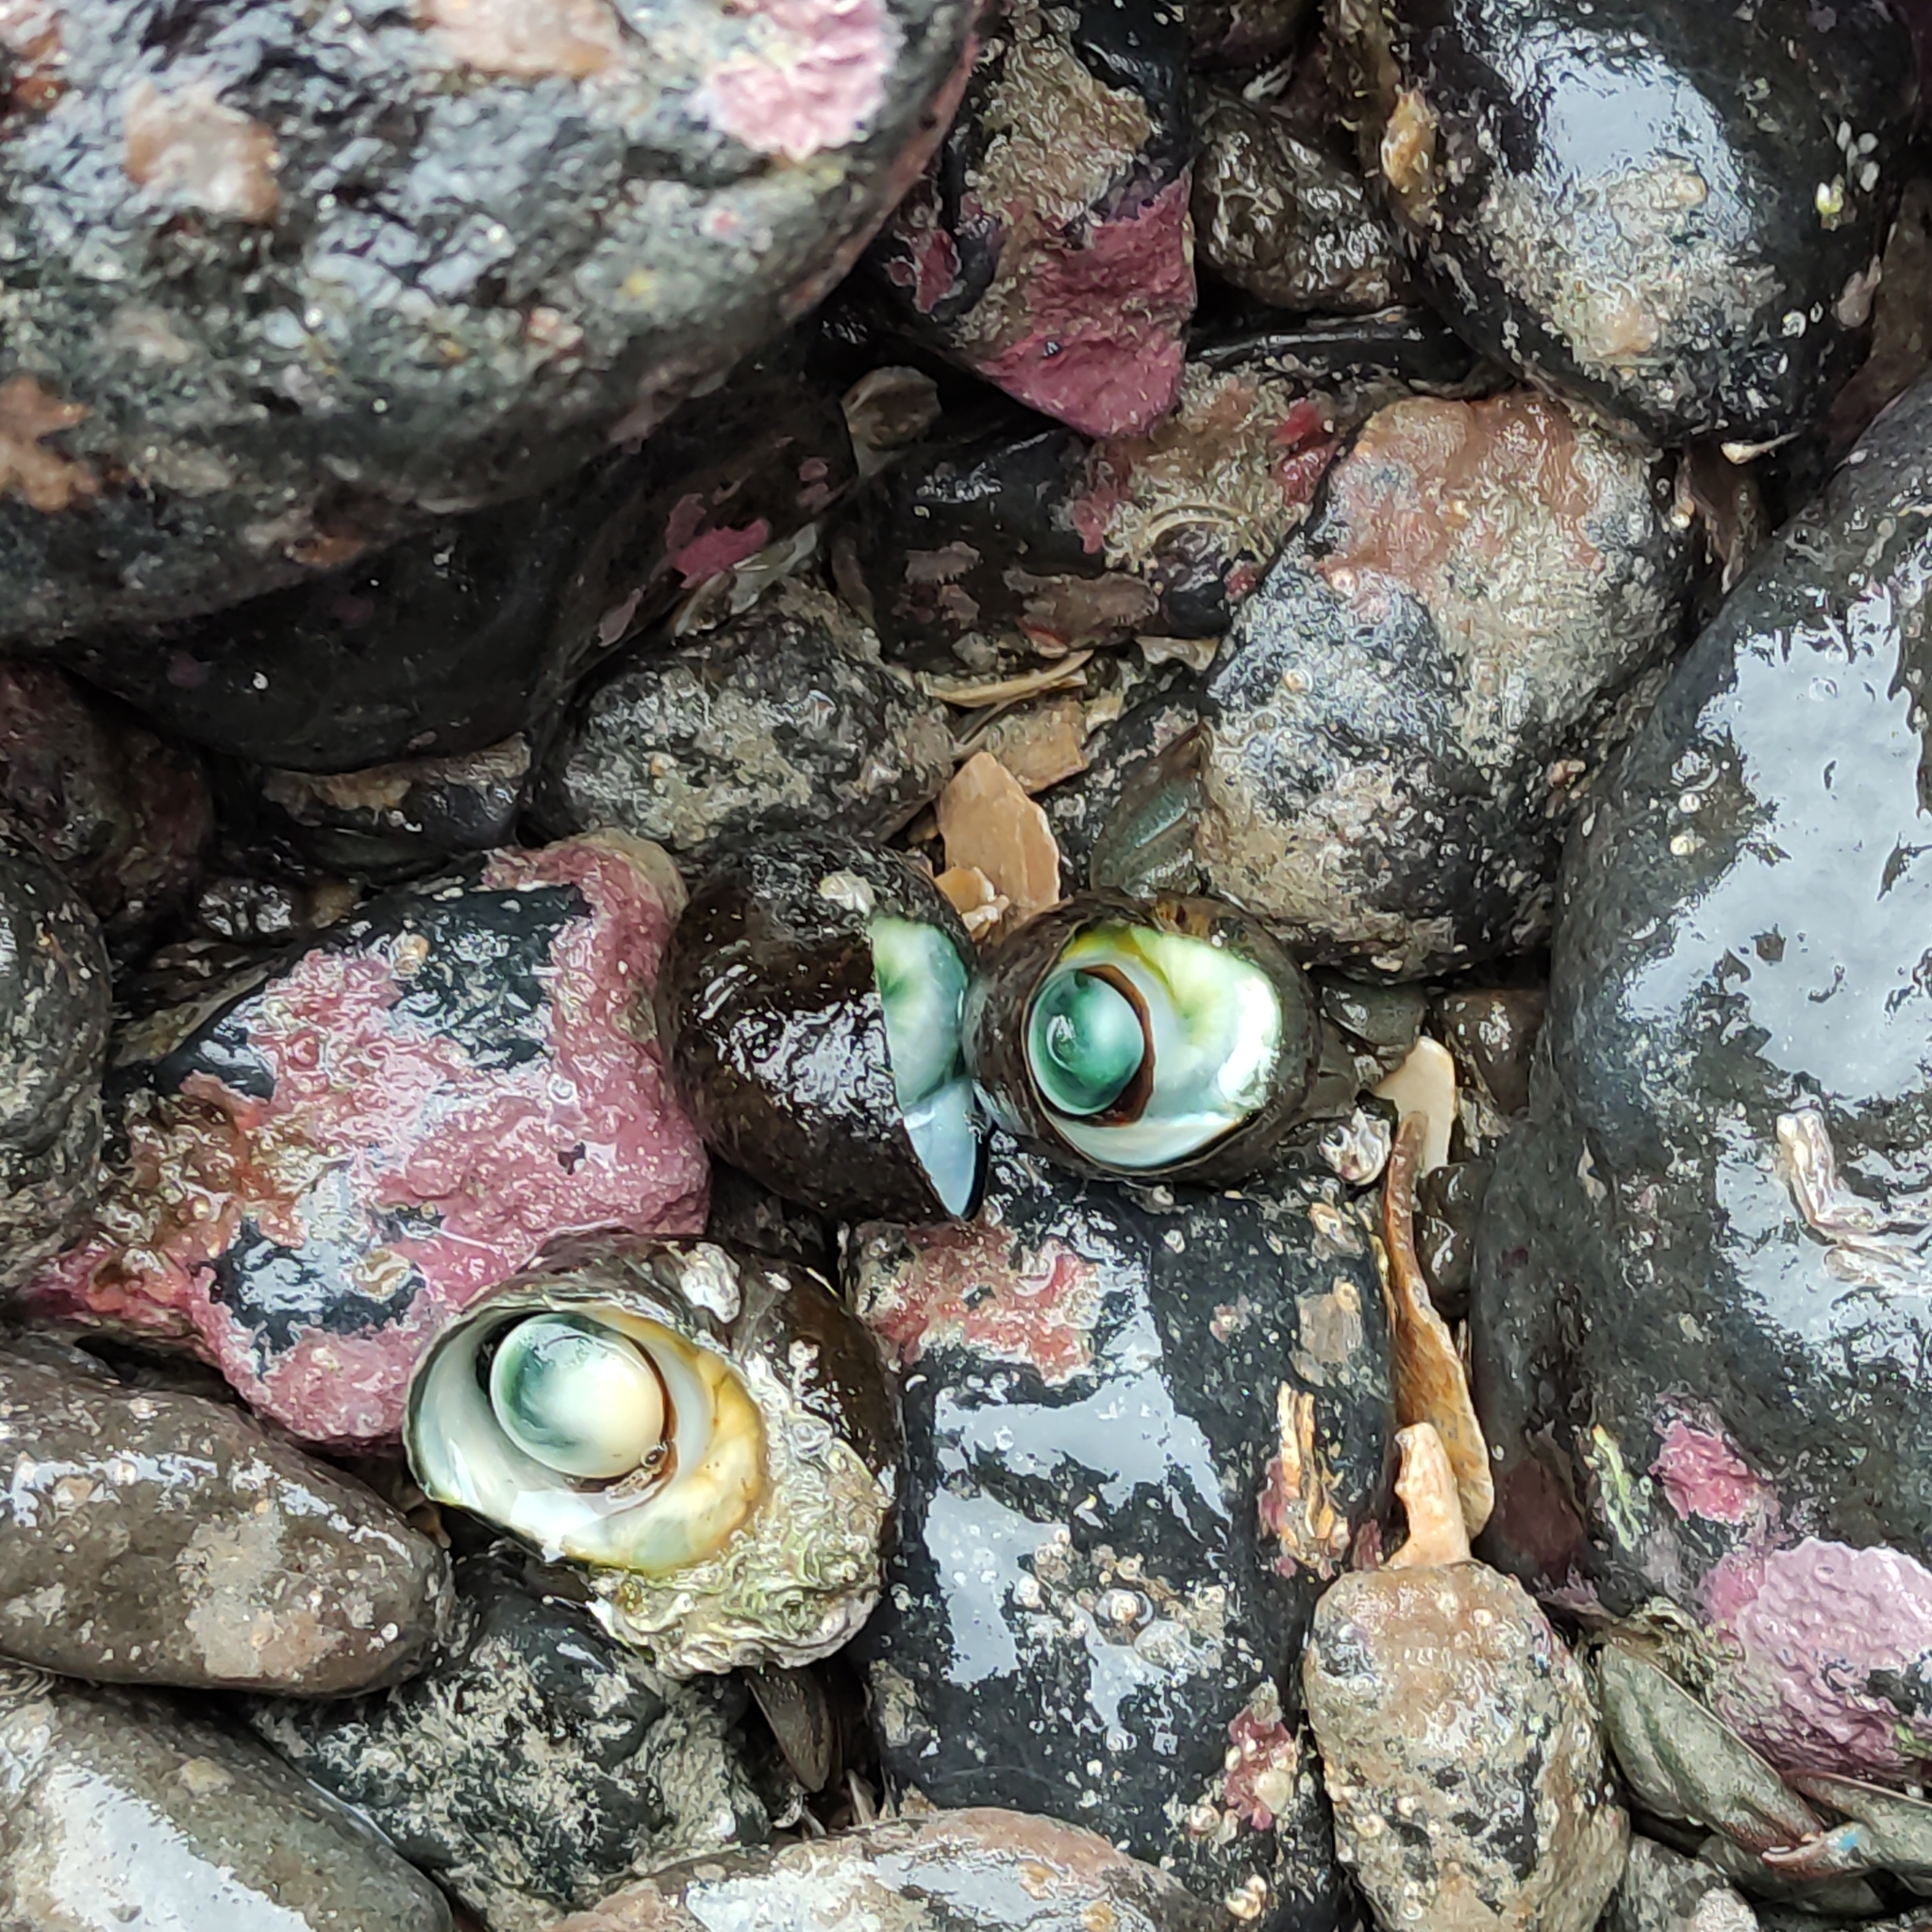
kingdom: Animalia
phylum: Mollusca
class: Gastropoda
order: Trochida
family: Turbinidae
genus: Lunella
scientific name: Lunella smaragda
